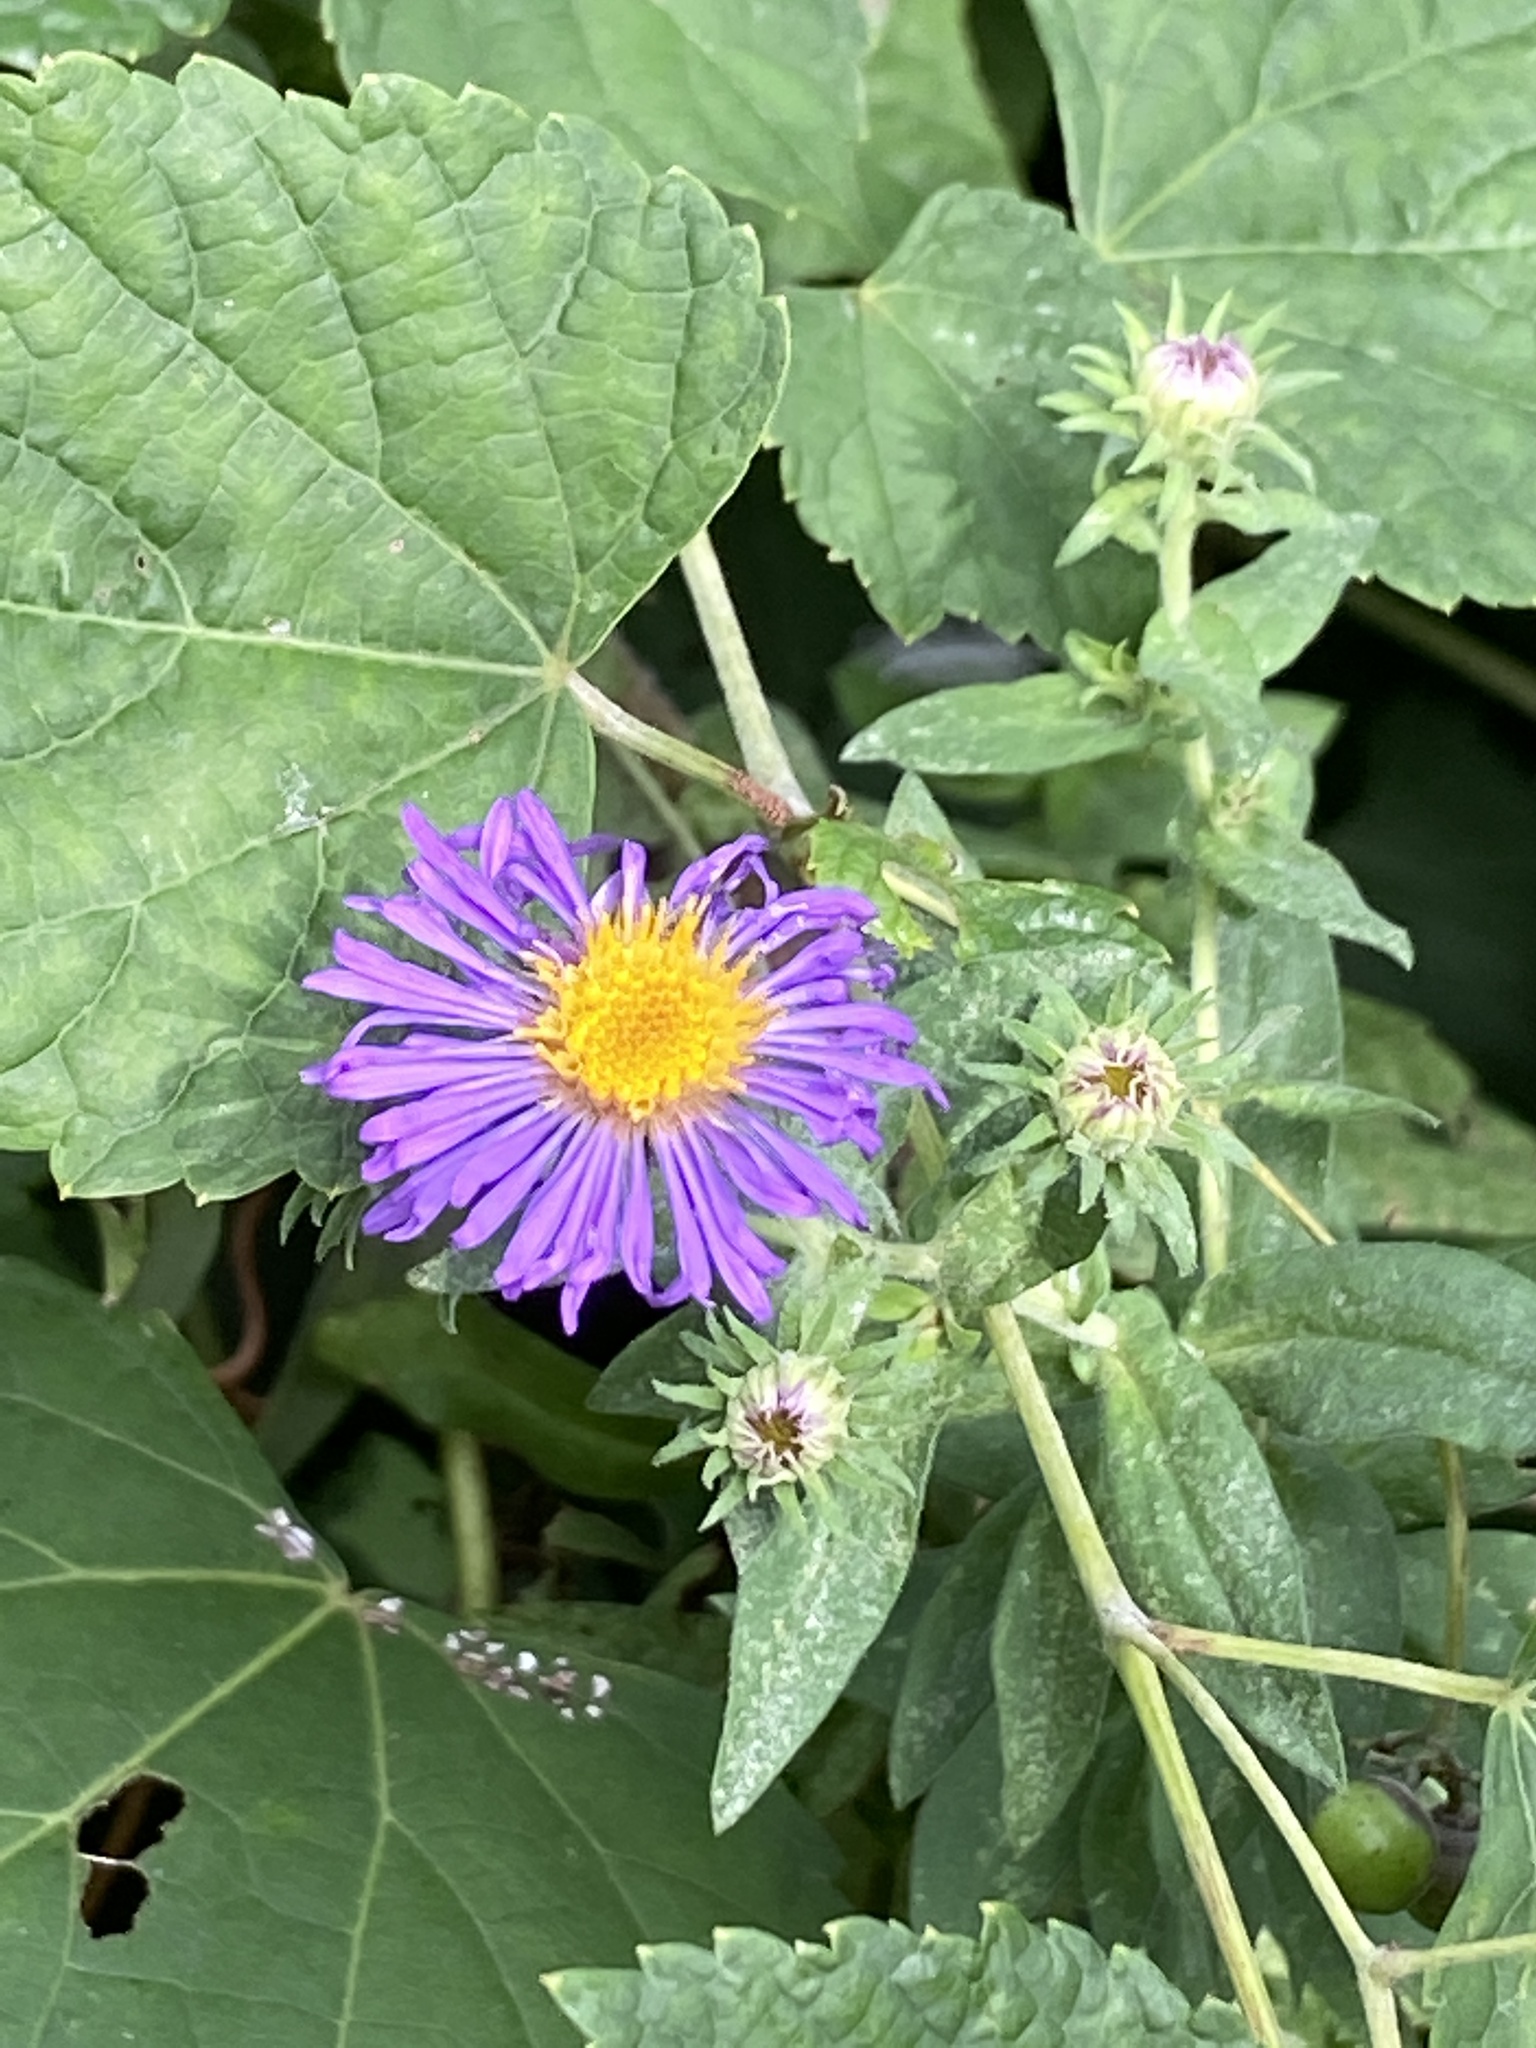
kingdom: Plantae
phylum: Tracheophyta
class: Magnoliopsida
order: Asterales
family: Asteraceae
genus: Symphyotrichum
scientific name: Symphyotrichum novae-angliae
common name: Michaelmas daisy
